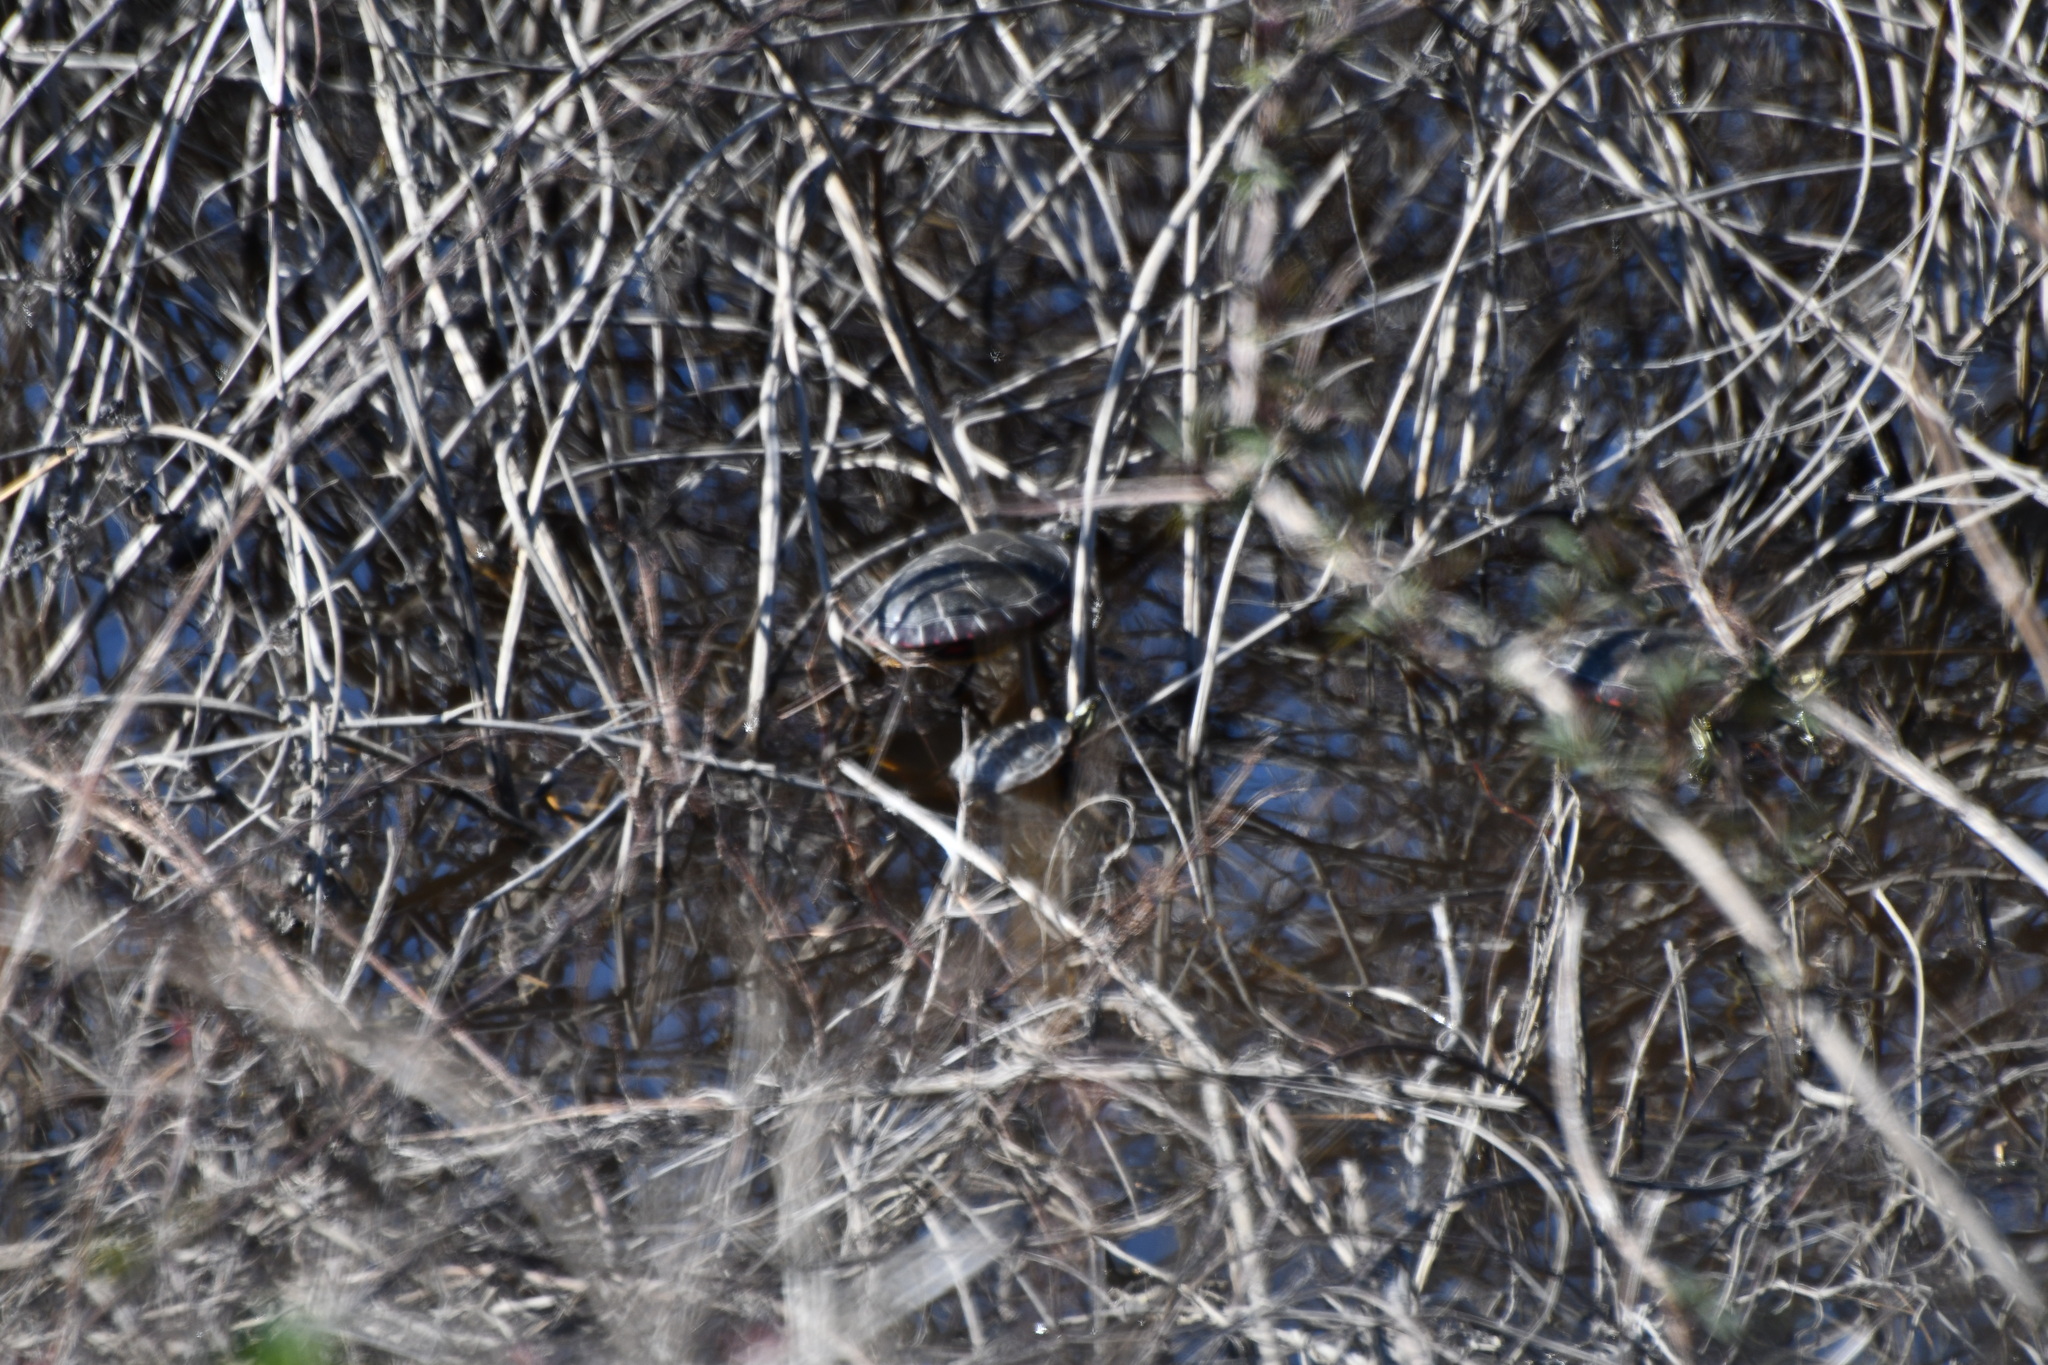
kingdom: Animalia
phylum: Chordata
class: Testudines
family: Emydidae
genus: Chrysemys
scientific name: Chrysemys picta
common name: Painted turtle
